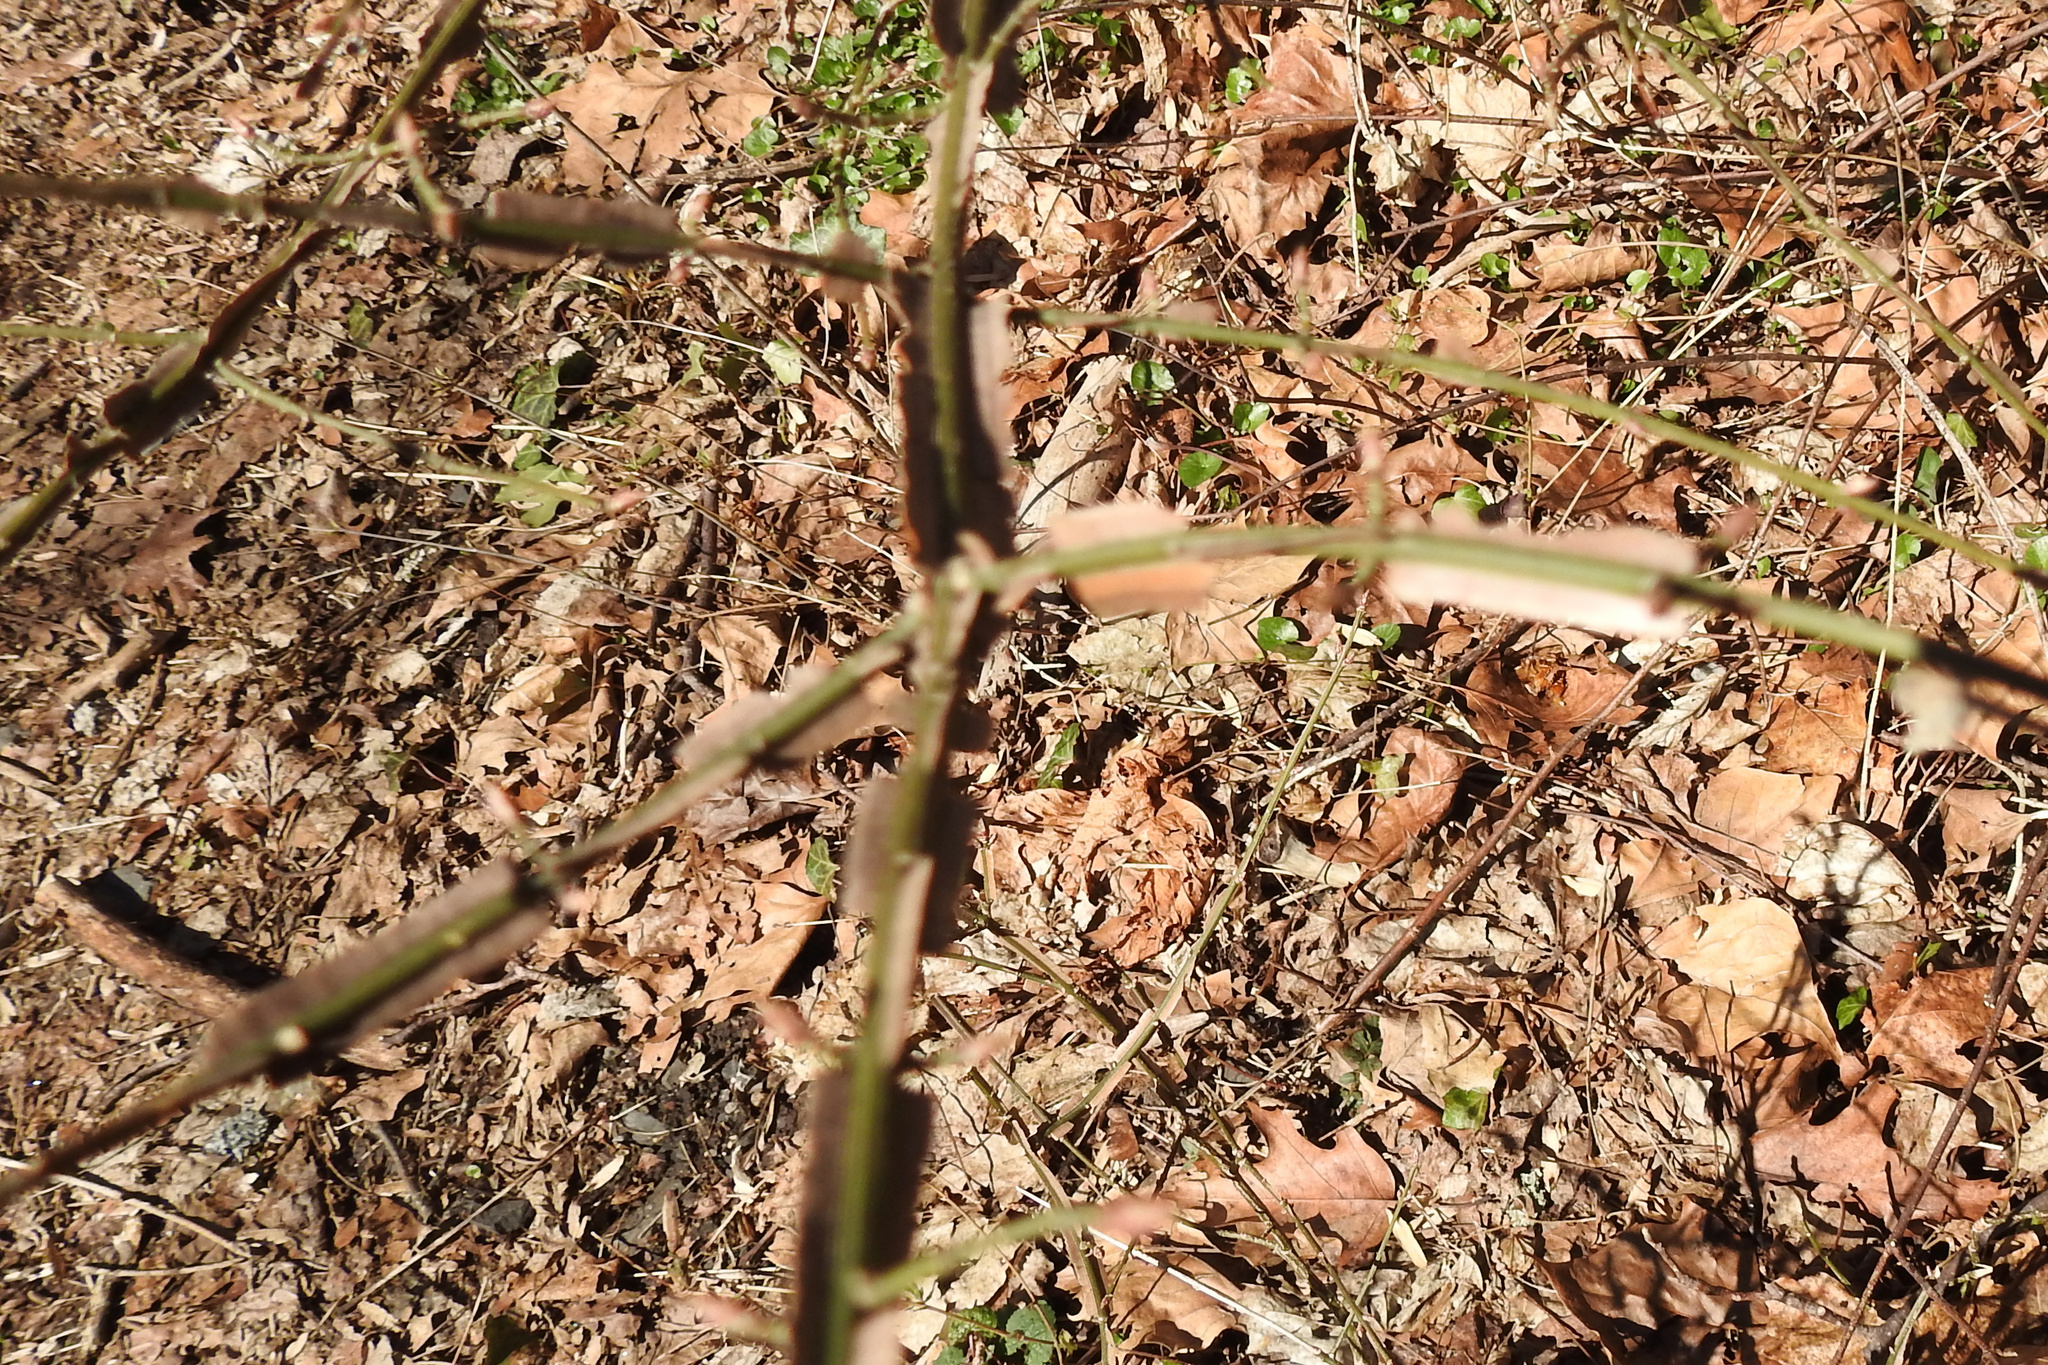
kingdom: Plantae
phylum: Tracheophyta
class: Magnoliopsida
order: Celastrales
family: Celastraceae
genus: Euonymus
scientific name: Euonymus alatus
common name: Winged euonymus
